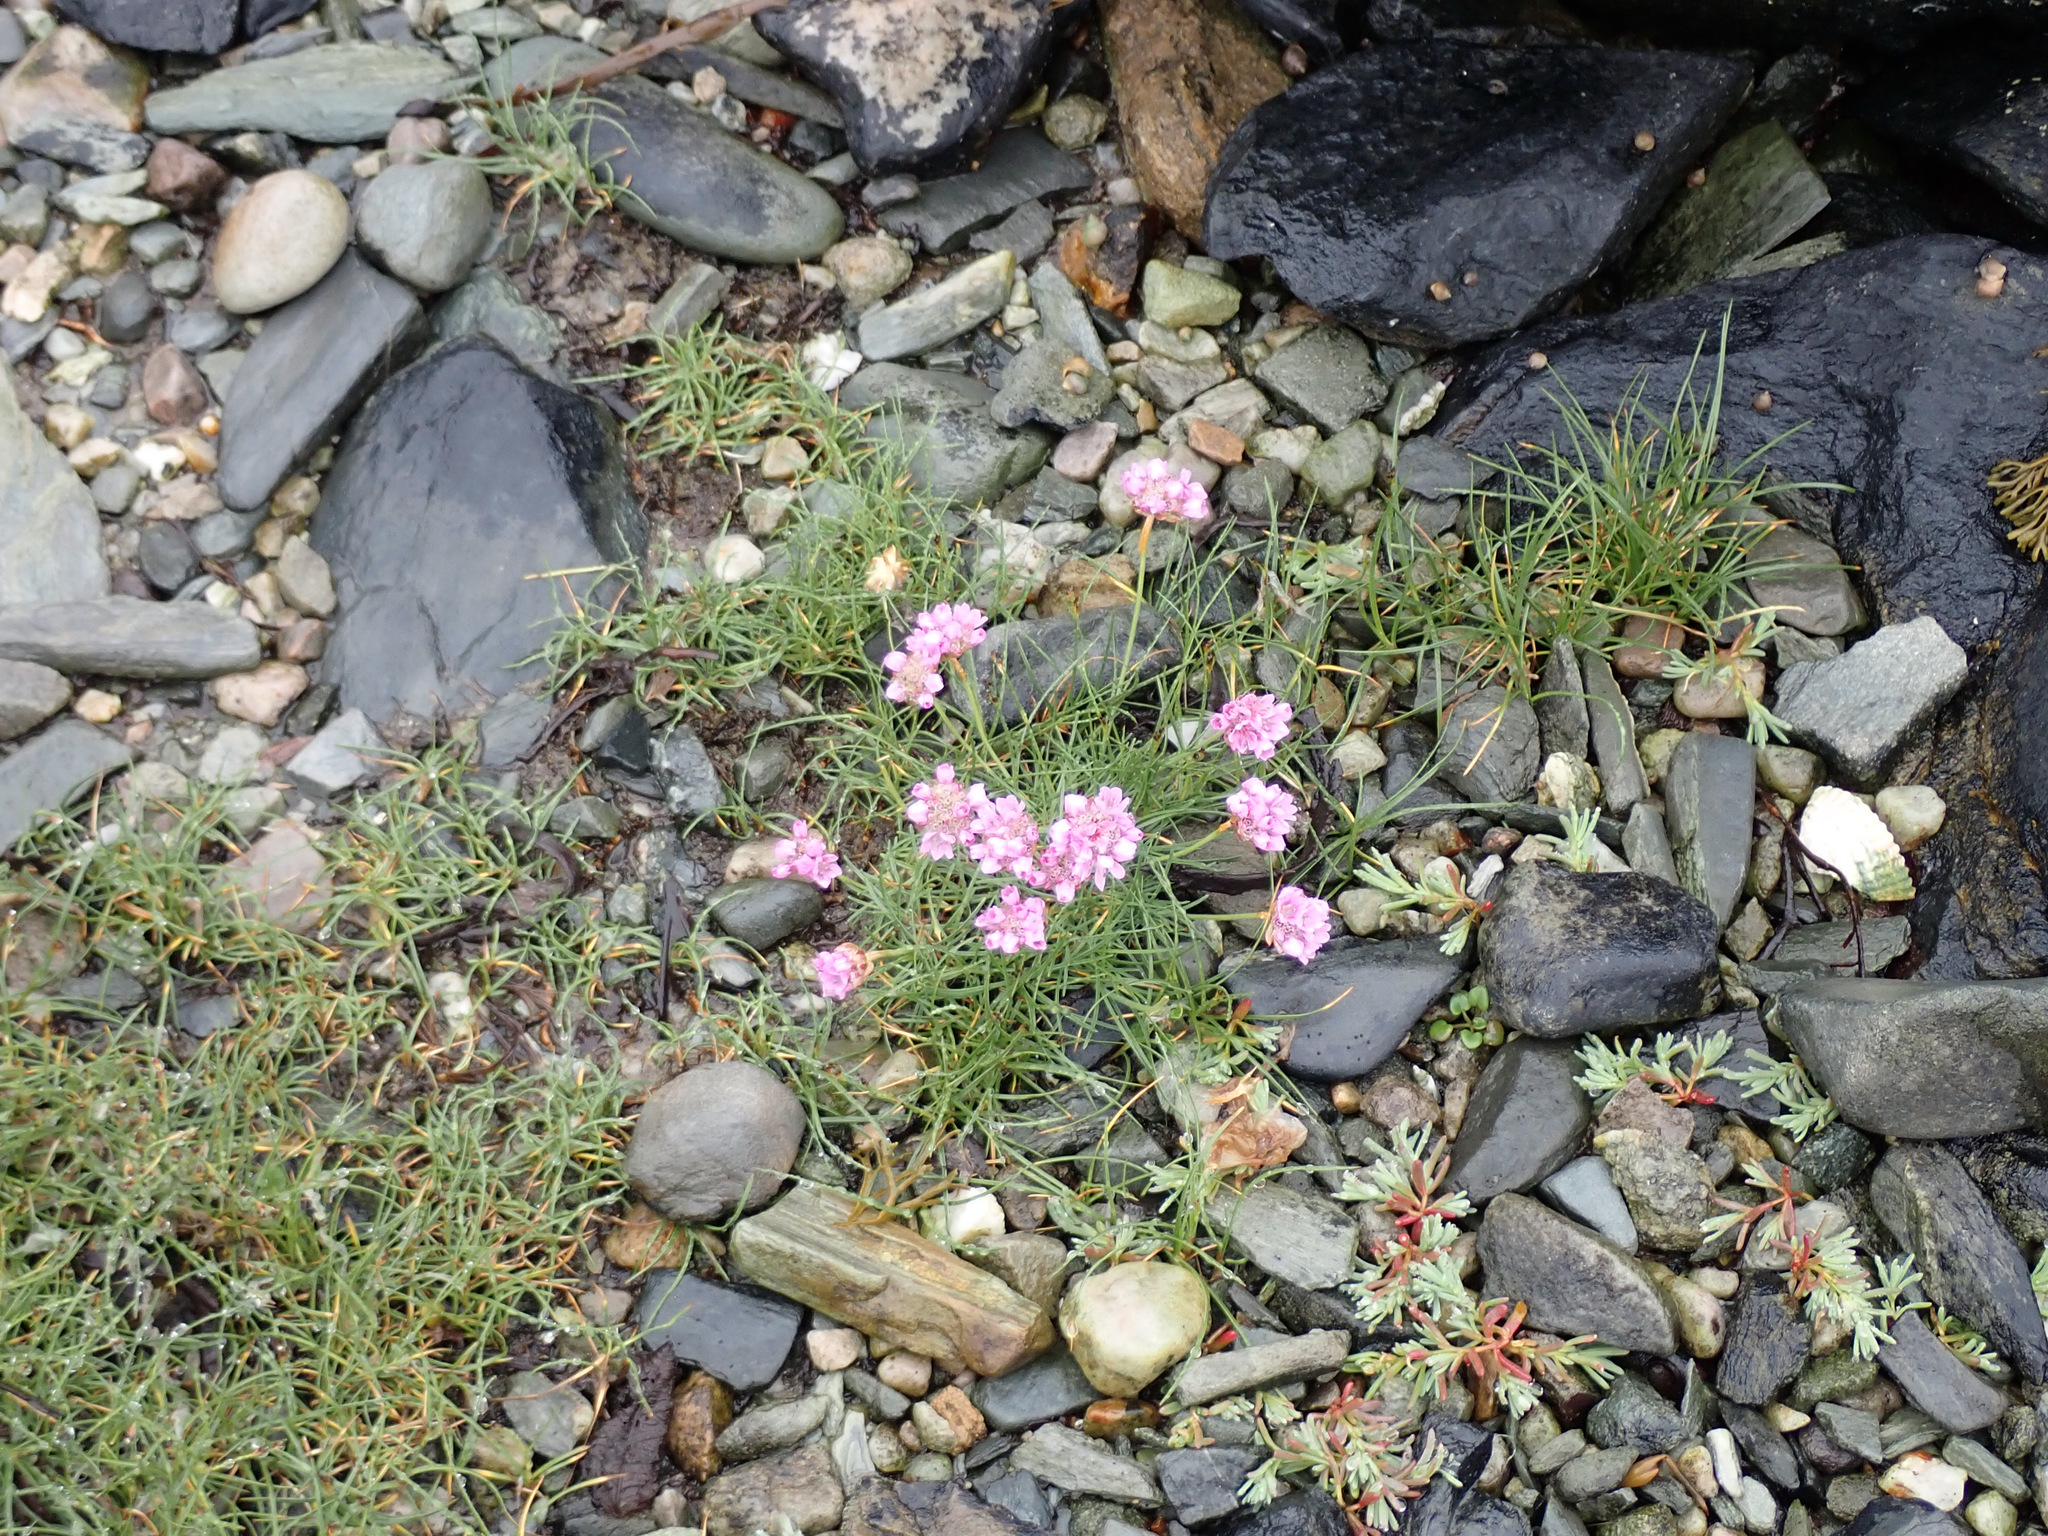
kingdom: Plantae
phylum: Tracheophyta
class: Magnoliopsida
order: Caryophyllales
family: Plumbaginaceae
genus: Armeria
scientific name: Armeria maritima
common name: Thrift
